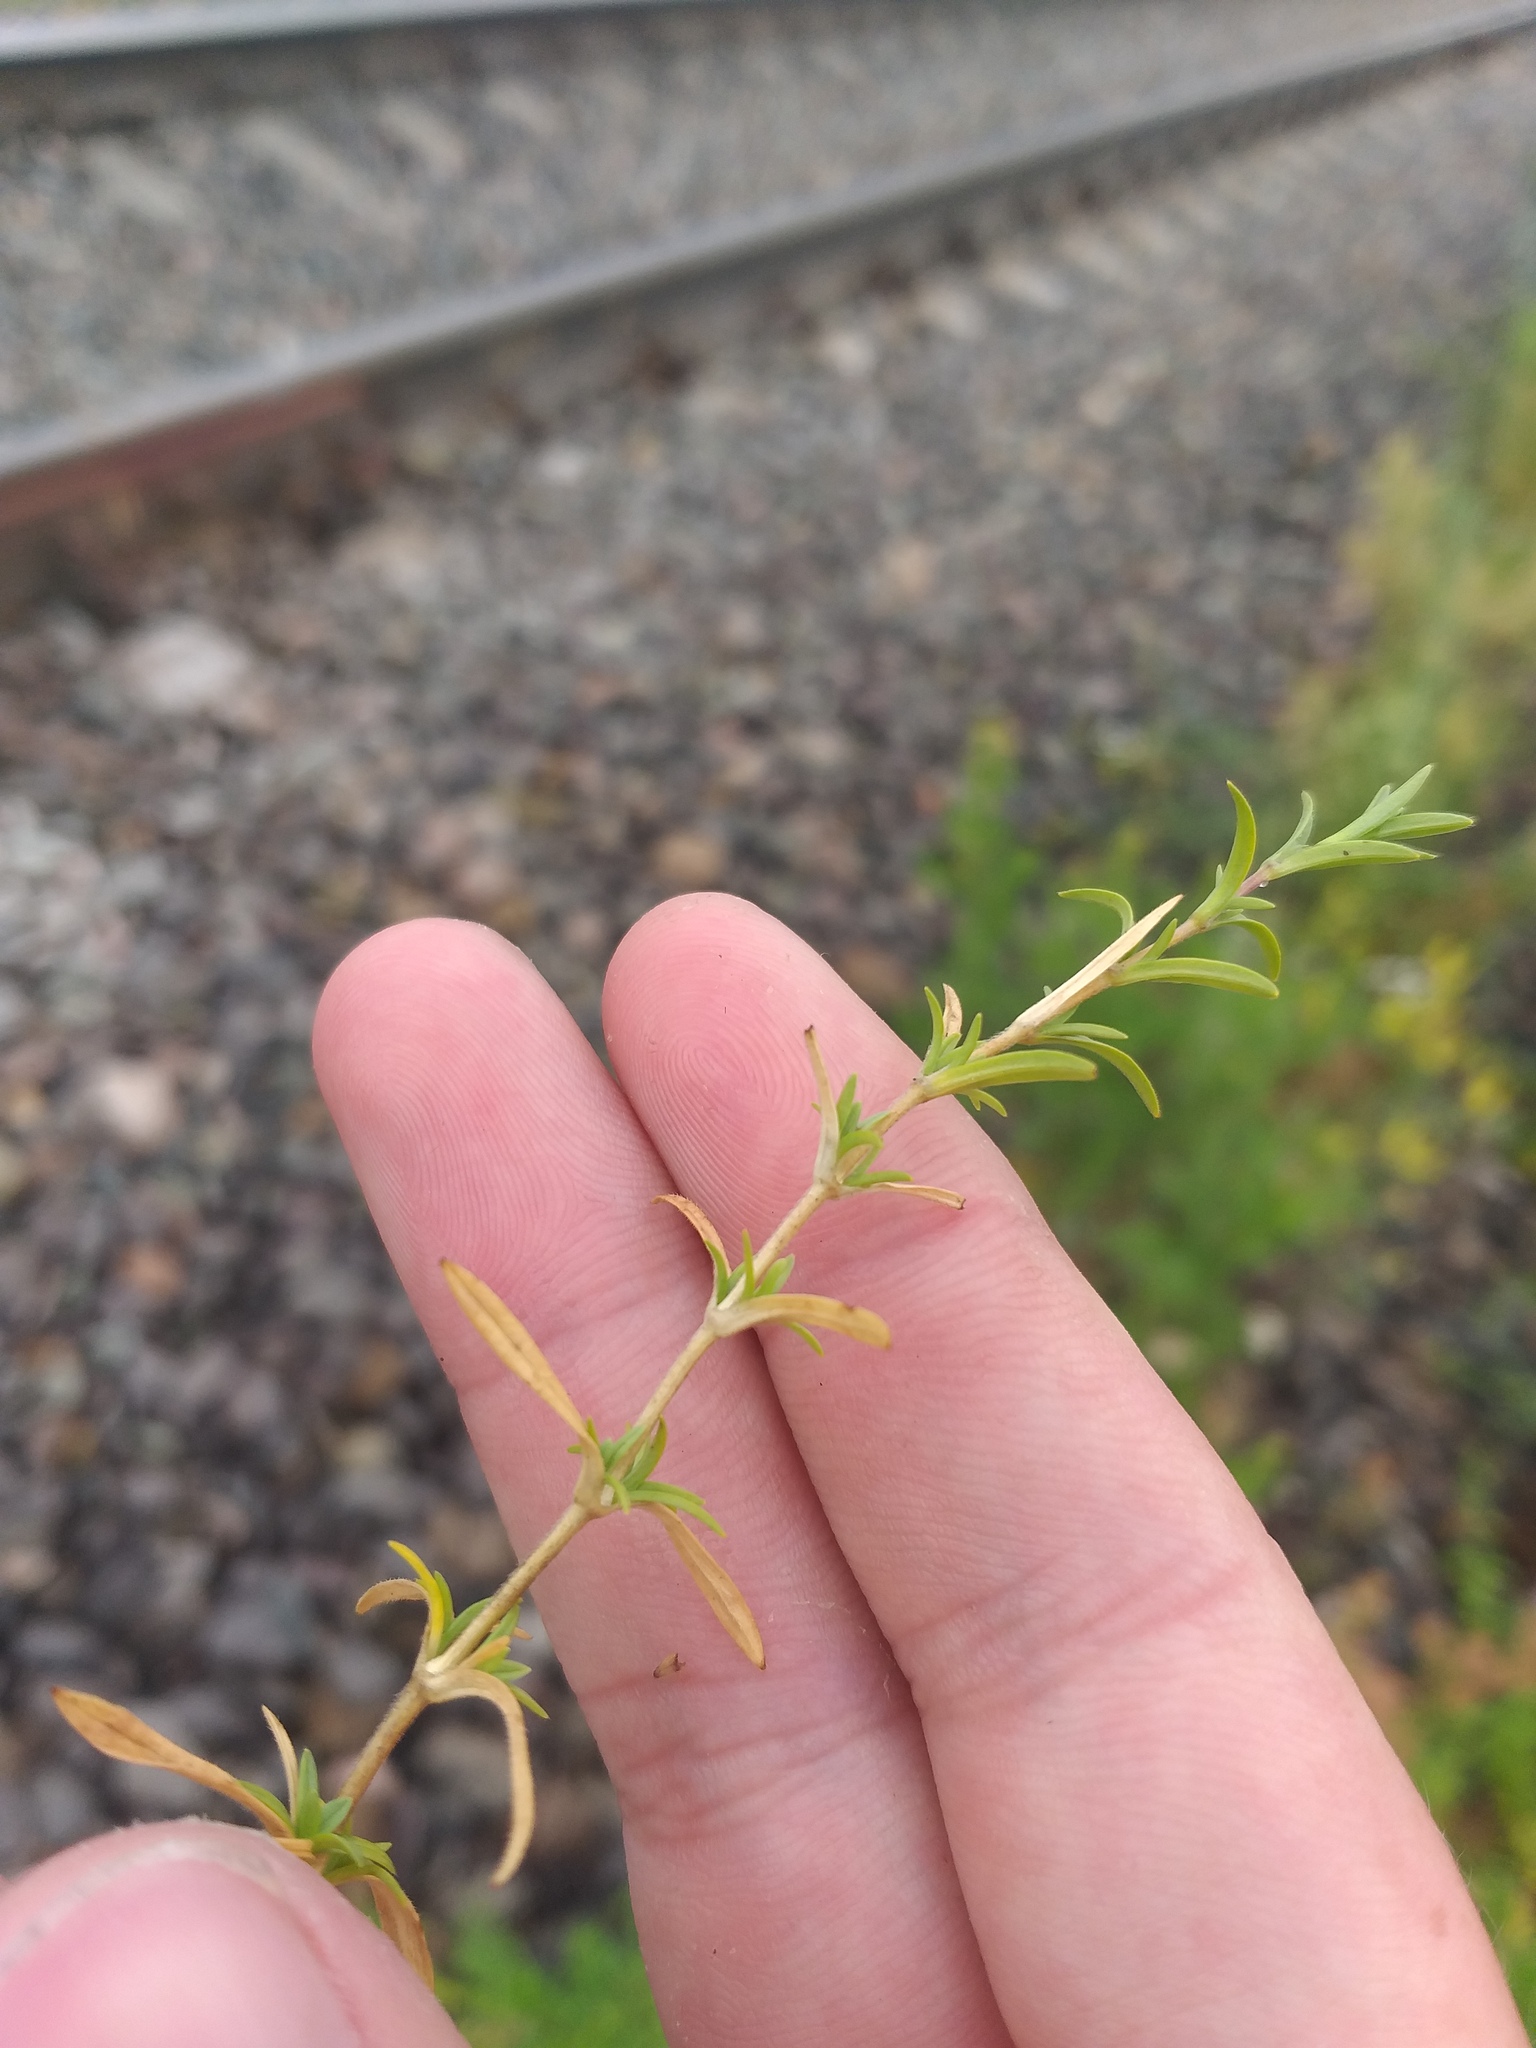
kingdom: Plantae
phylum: Tracheophyta
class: Magnoliopsida
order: Caryophyllales
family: Caryophyllaceae
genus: Cerastium
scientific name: Cerastium arvense
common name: Field mouse-ear
